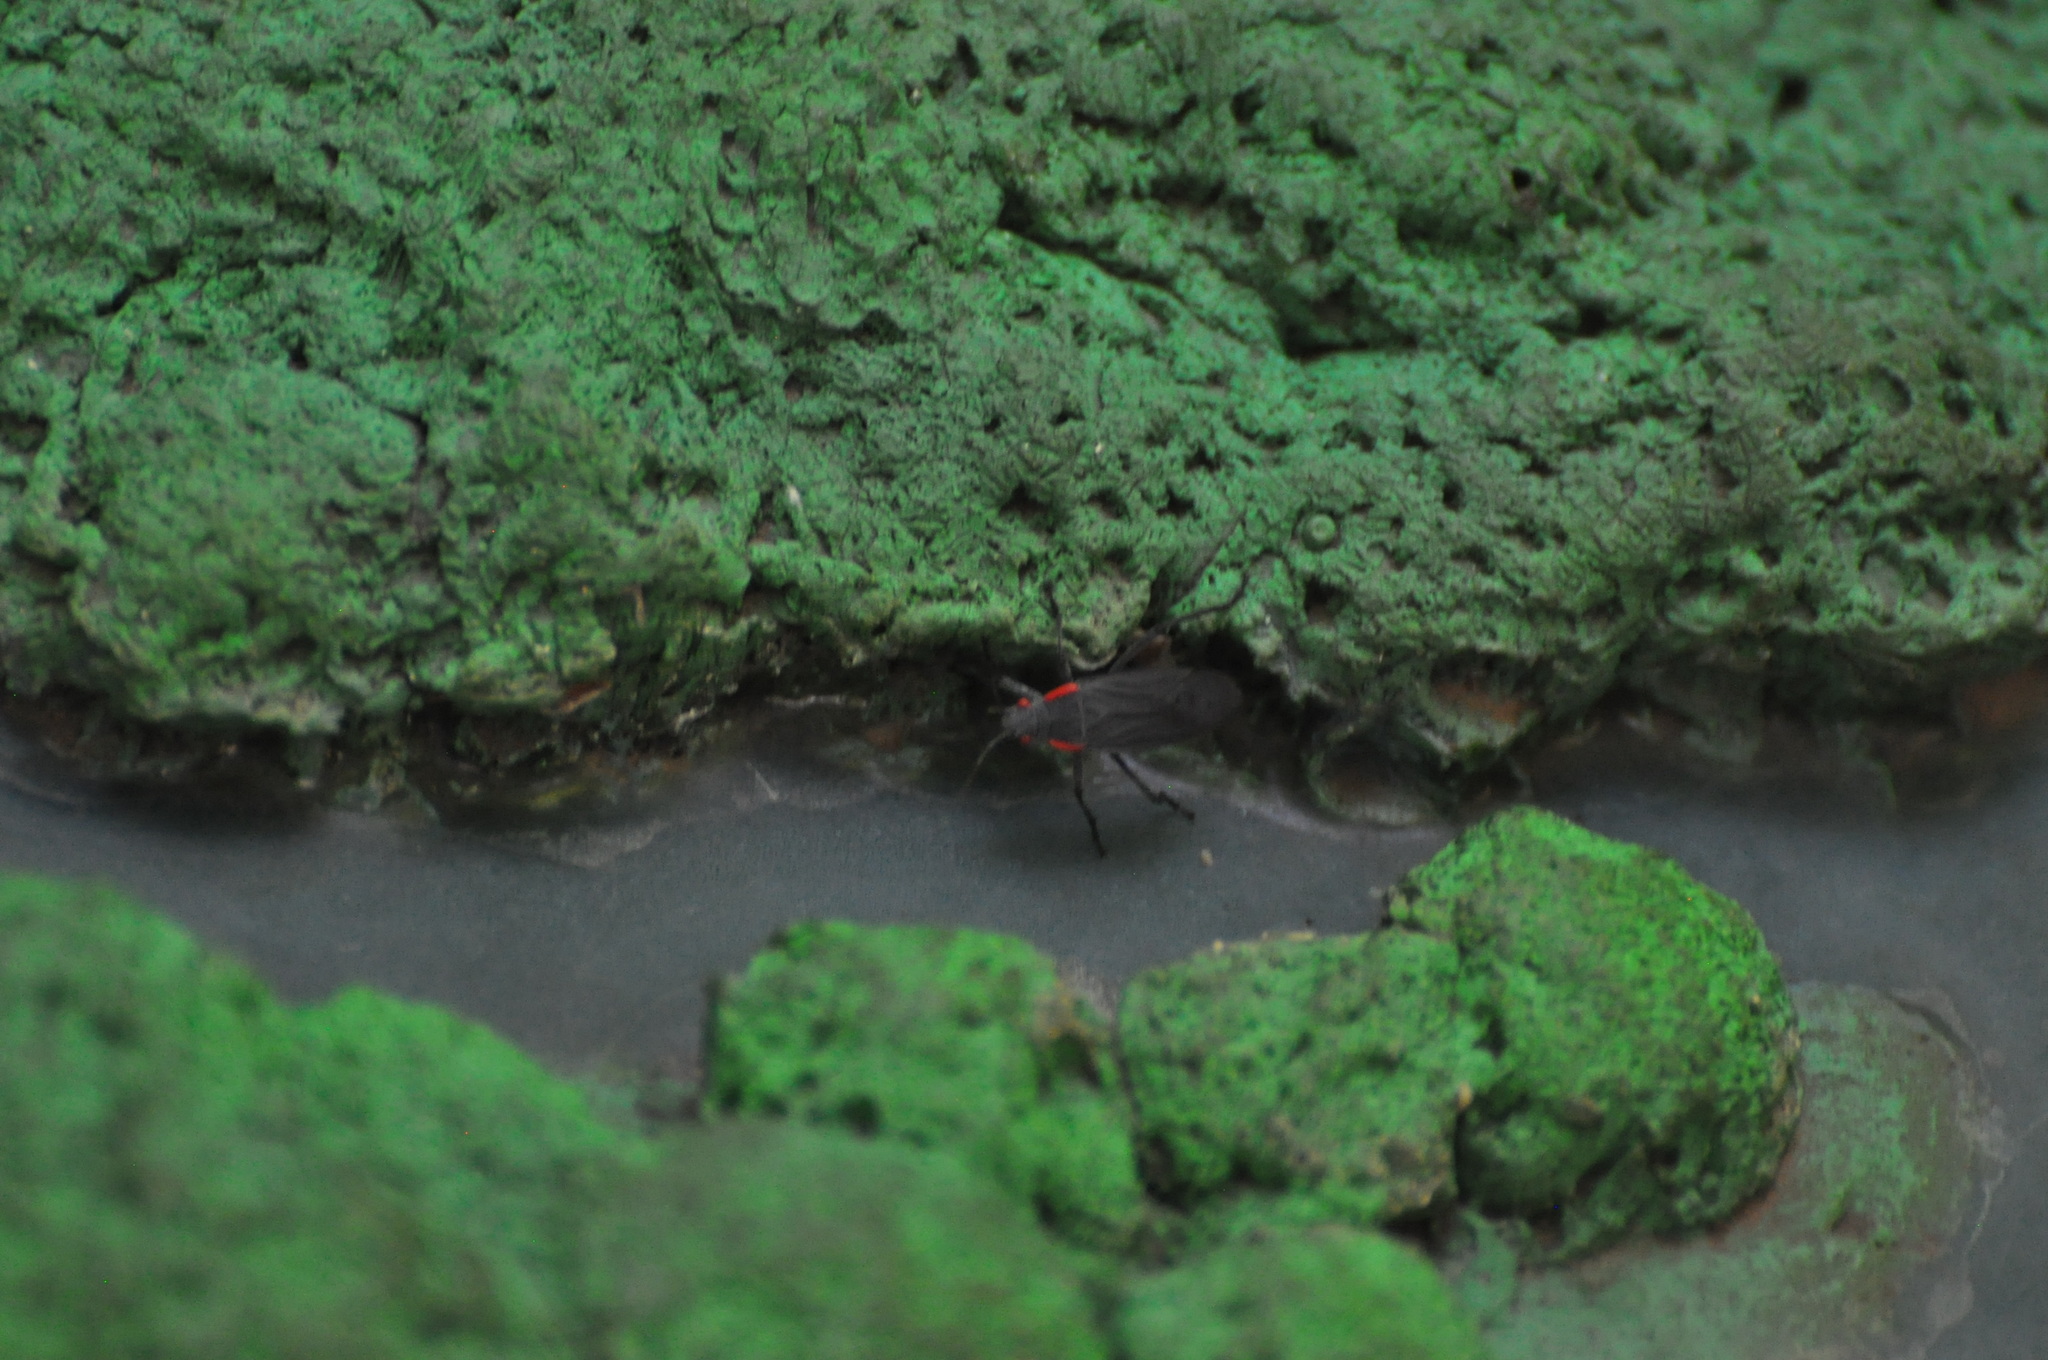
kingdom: Animalia
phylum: Arthropoda
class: Insecta
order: Hemiptera
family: Rhopalidae
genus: Jadera
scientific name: Jadera haematoloma
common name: Red-shouldered bug
